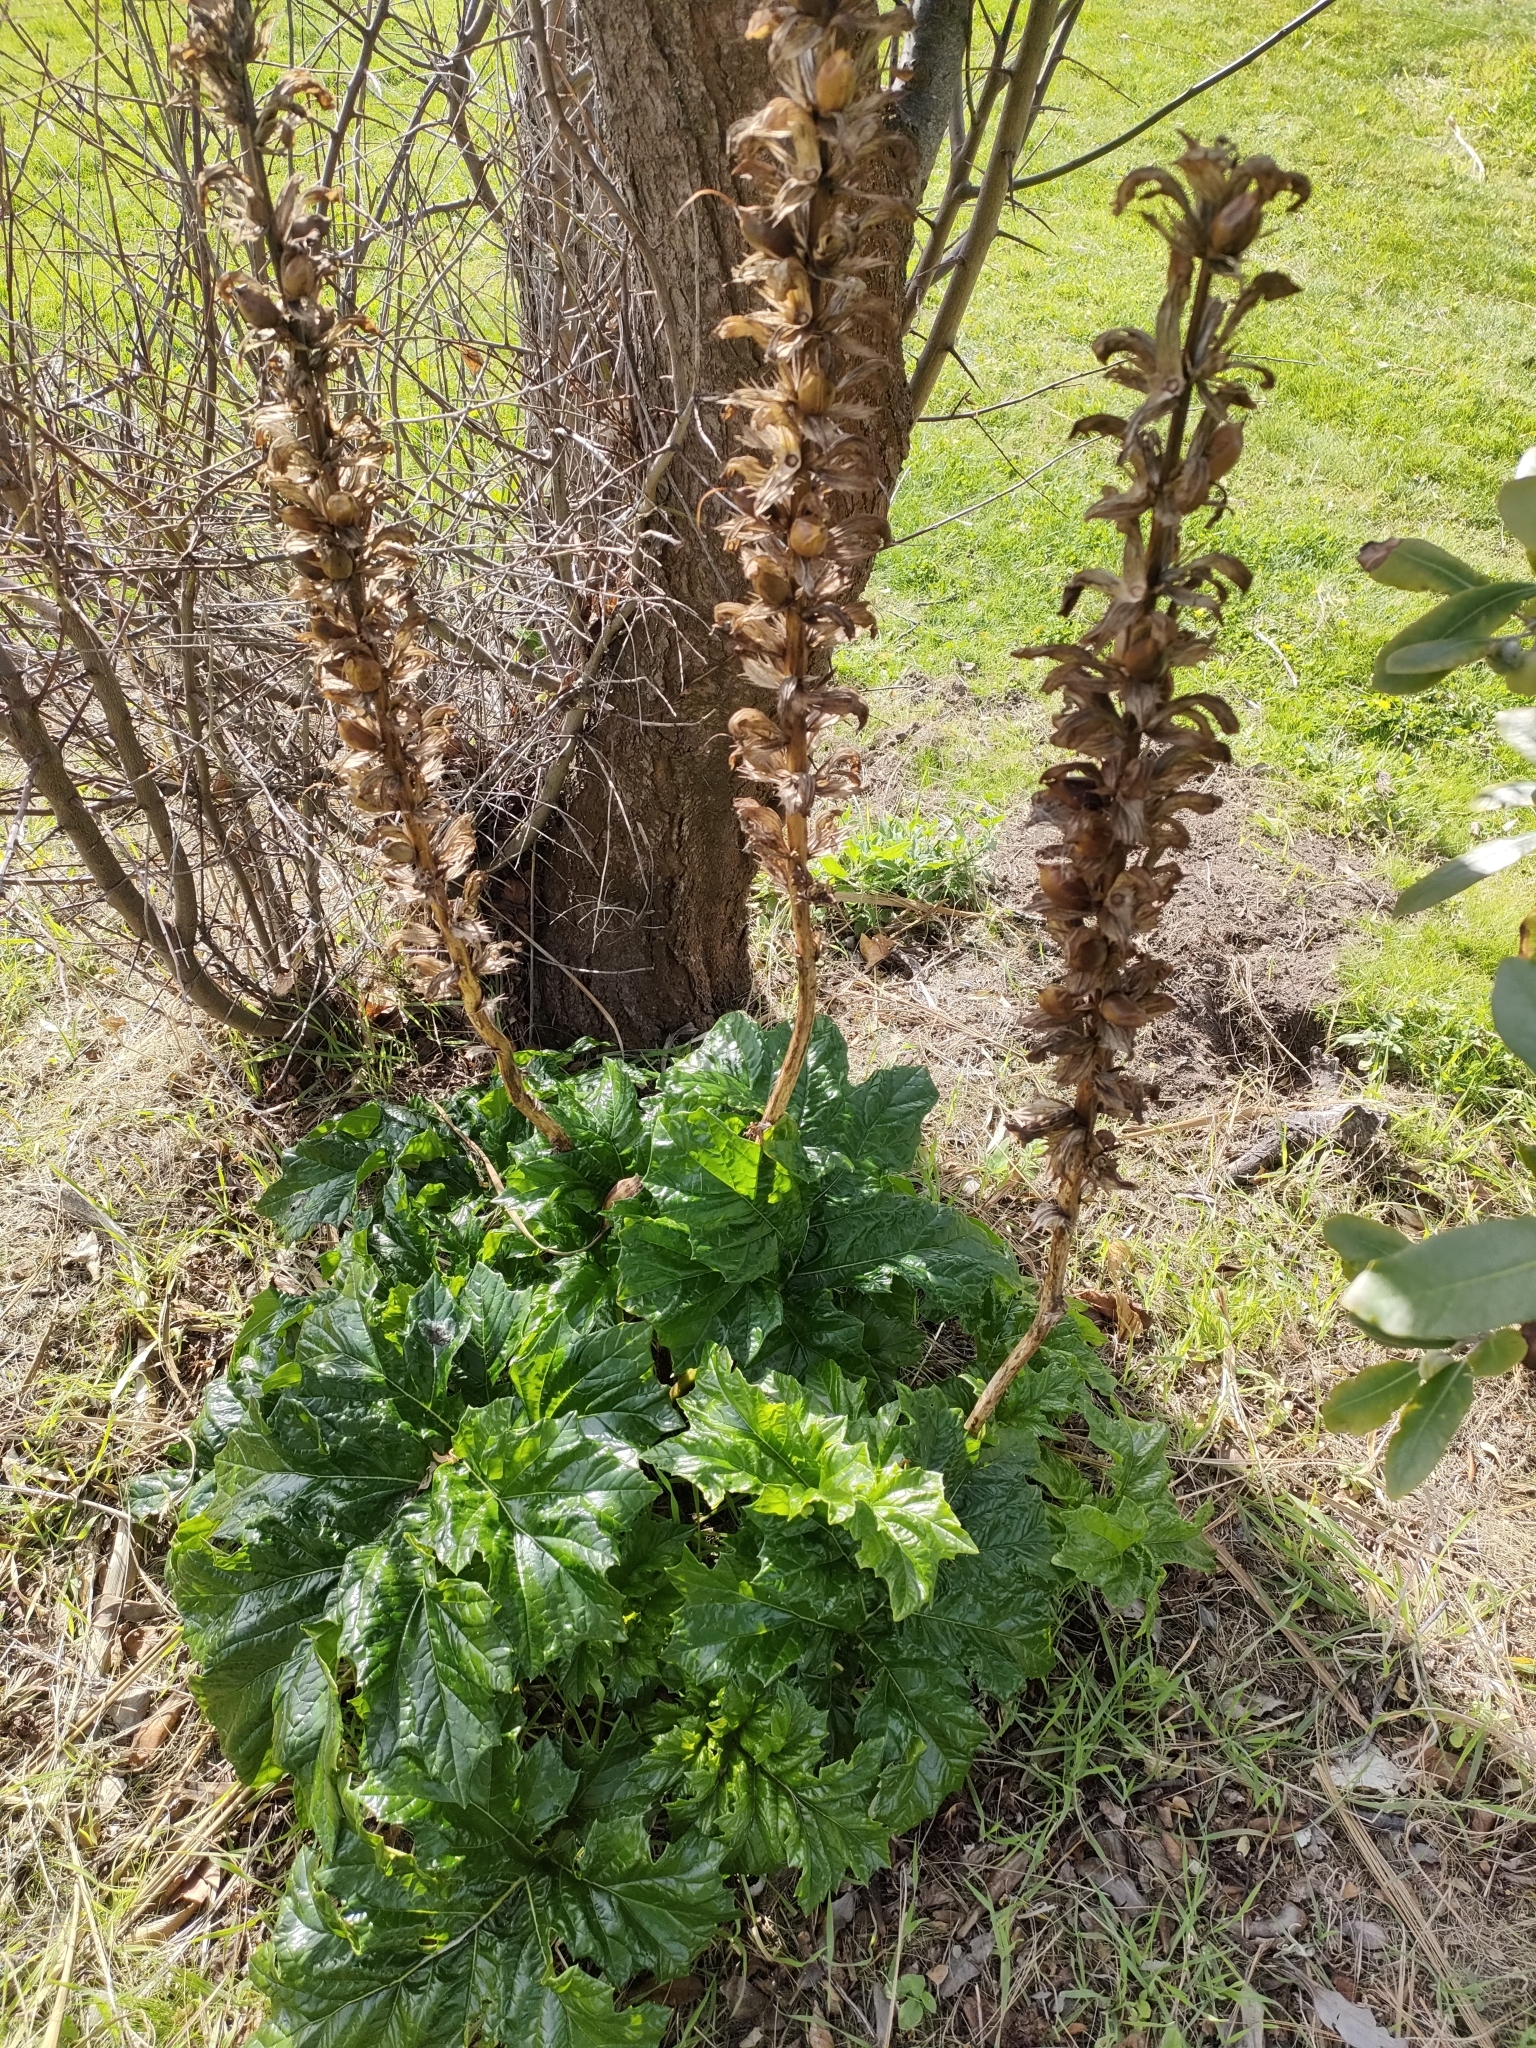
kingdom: Plantae
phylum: Tracheophyta
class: Magnoliopsida
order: Lamiales
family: Acanthaceae
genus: Acanthus
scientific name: Acanthus mollis
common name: Bear's-breech
